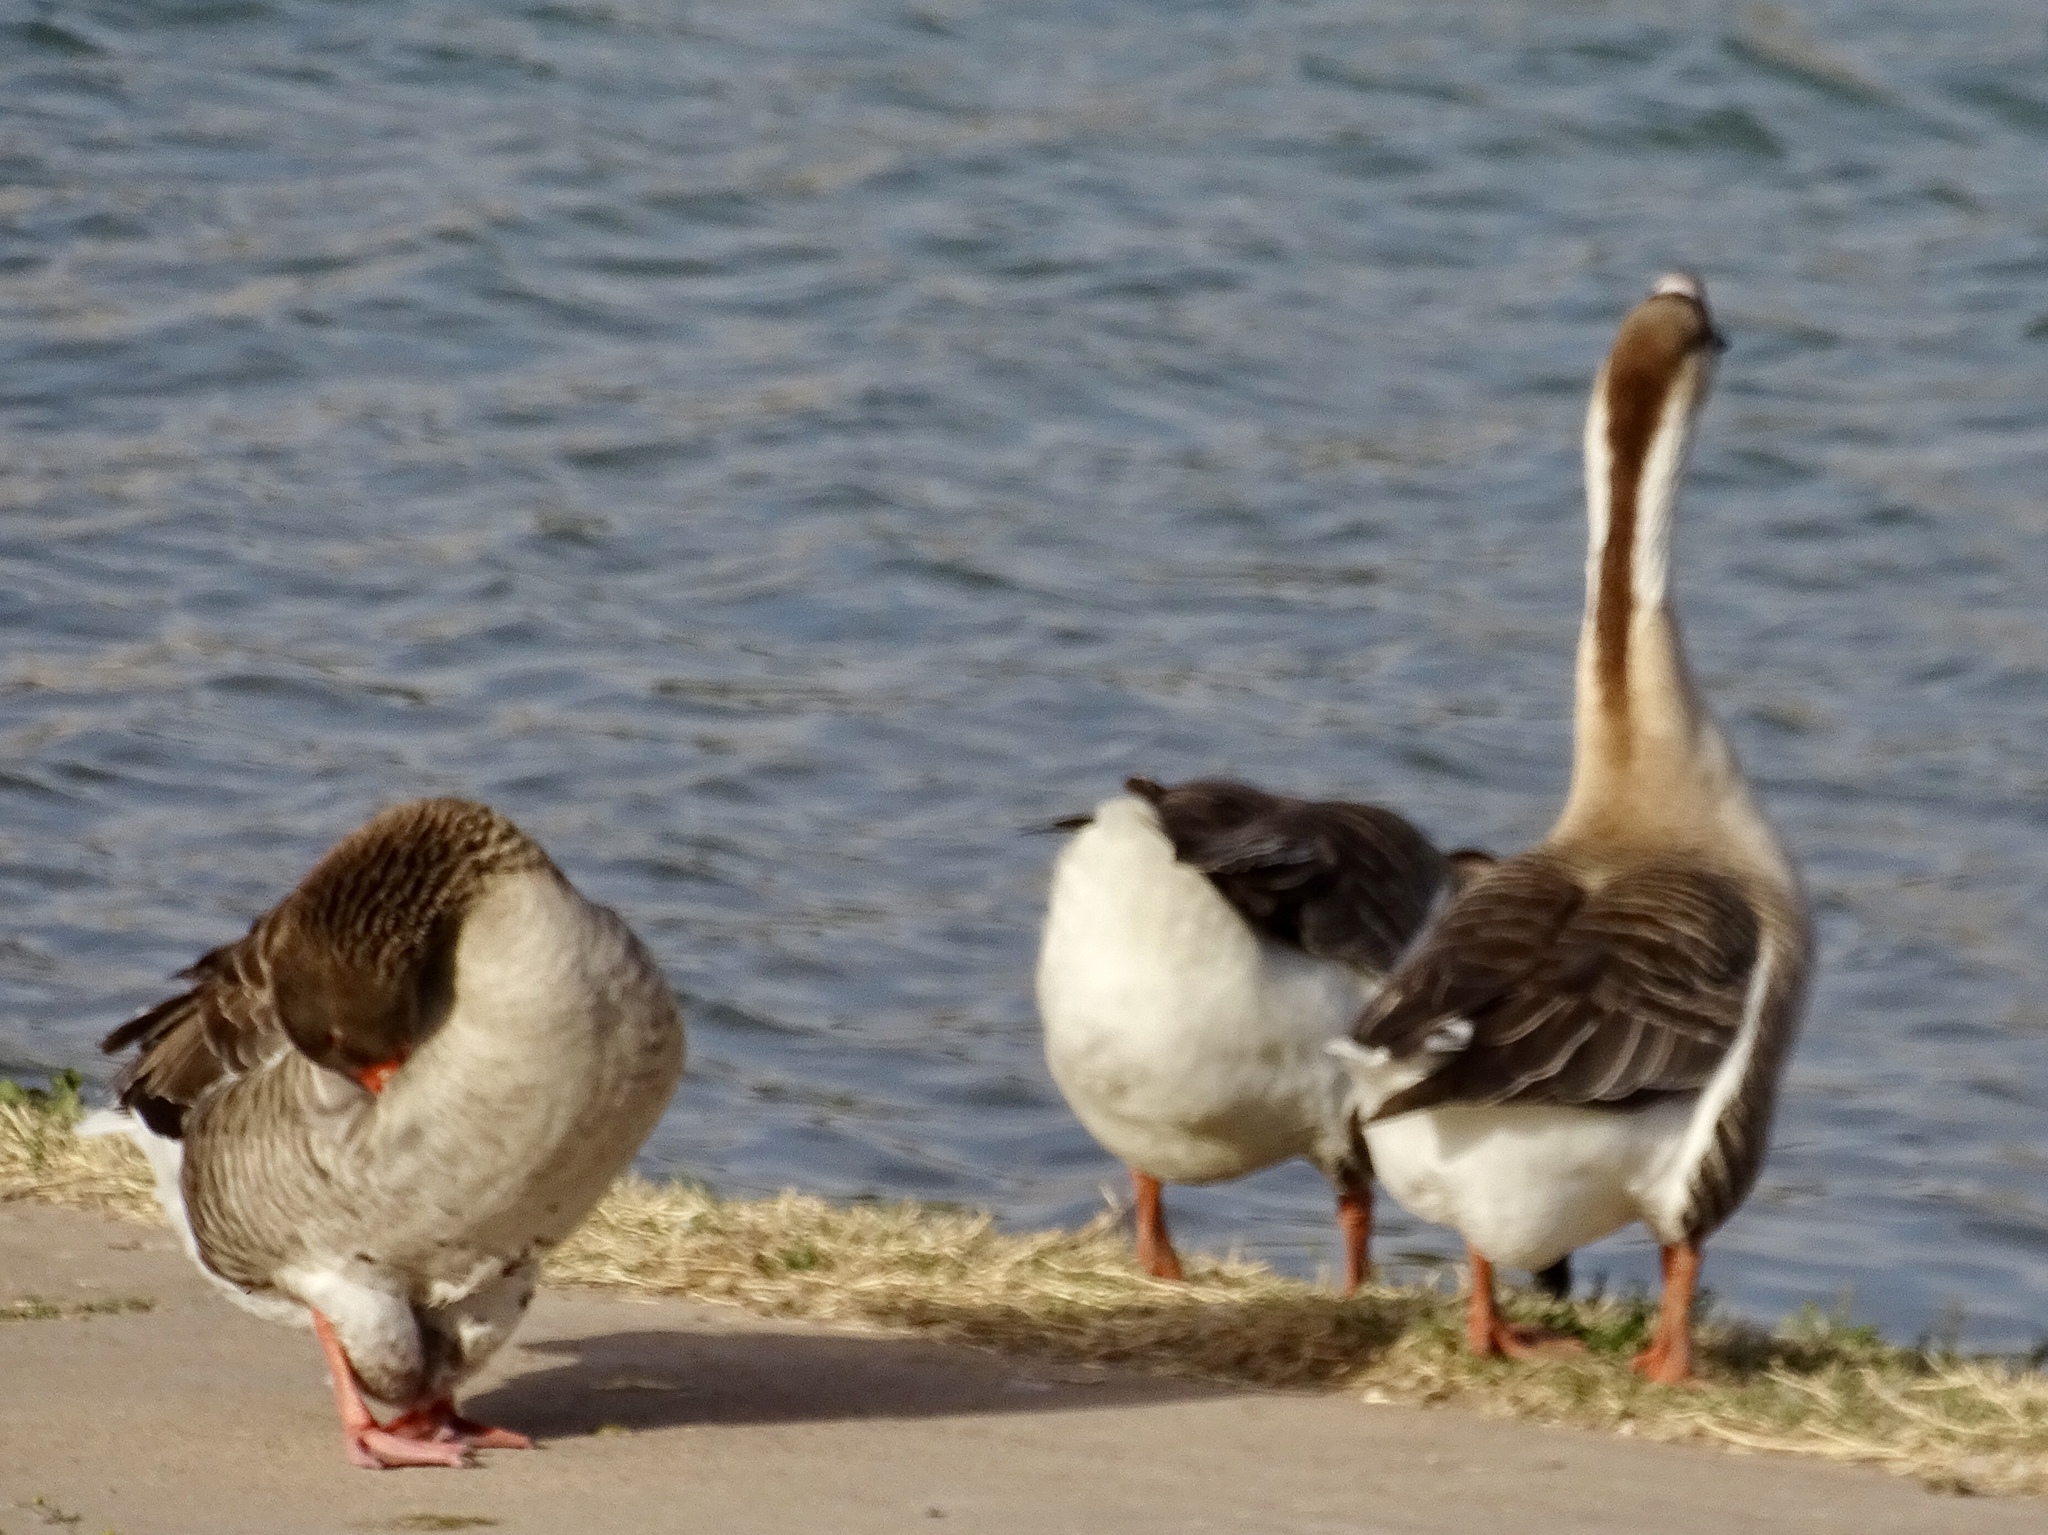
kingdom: Animalia
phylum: Chordata
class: Aves
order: Anseriformes
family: Anatidae
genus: Anser
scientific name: Anser cygnoides
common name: Swan goose
